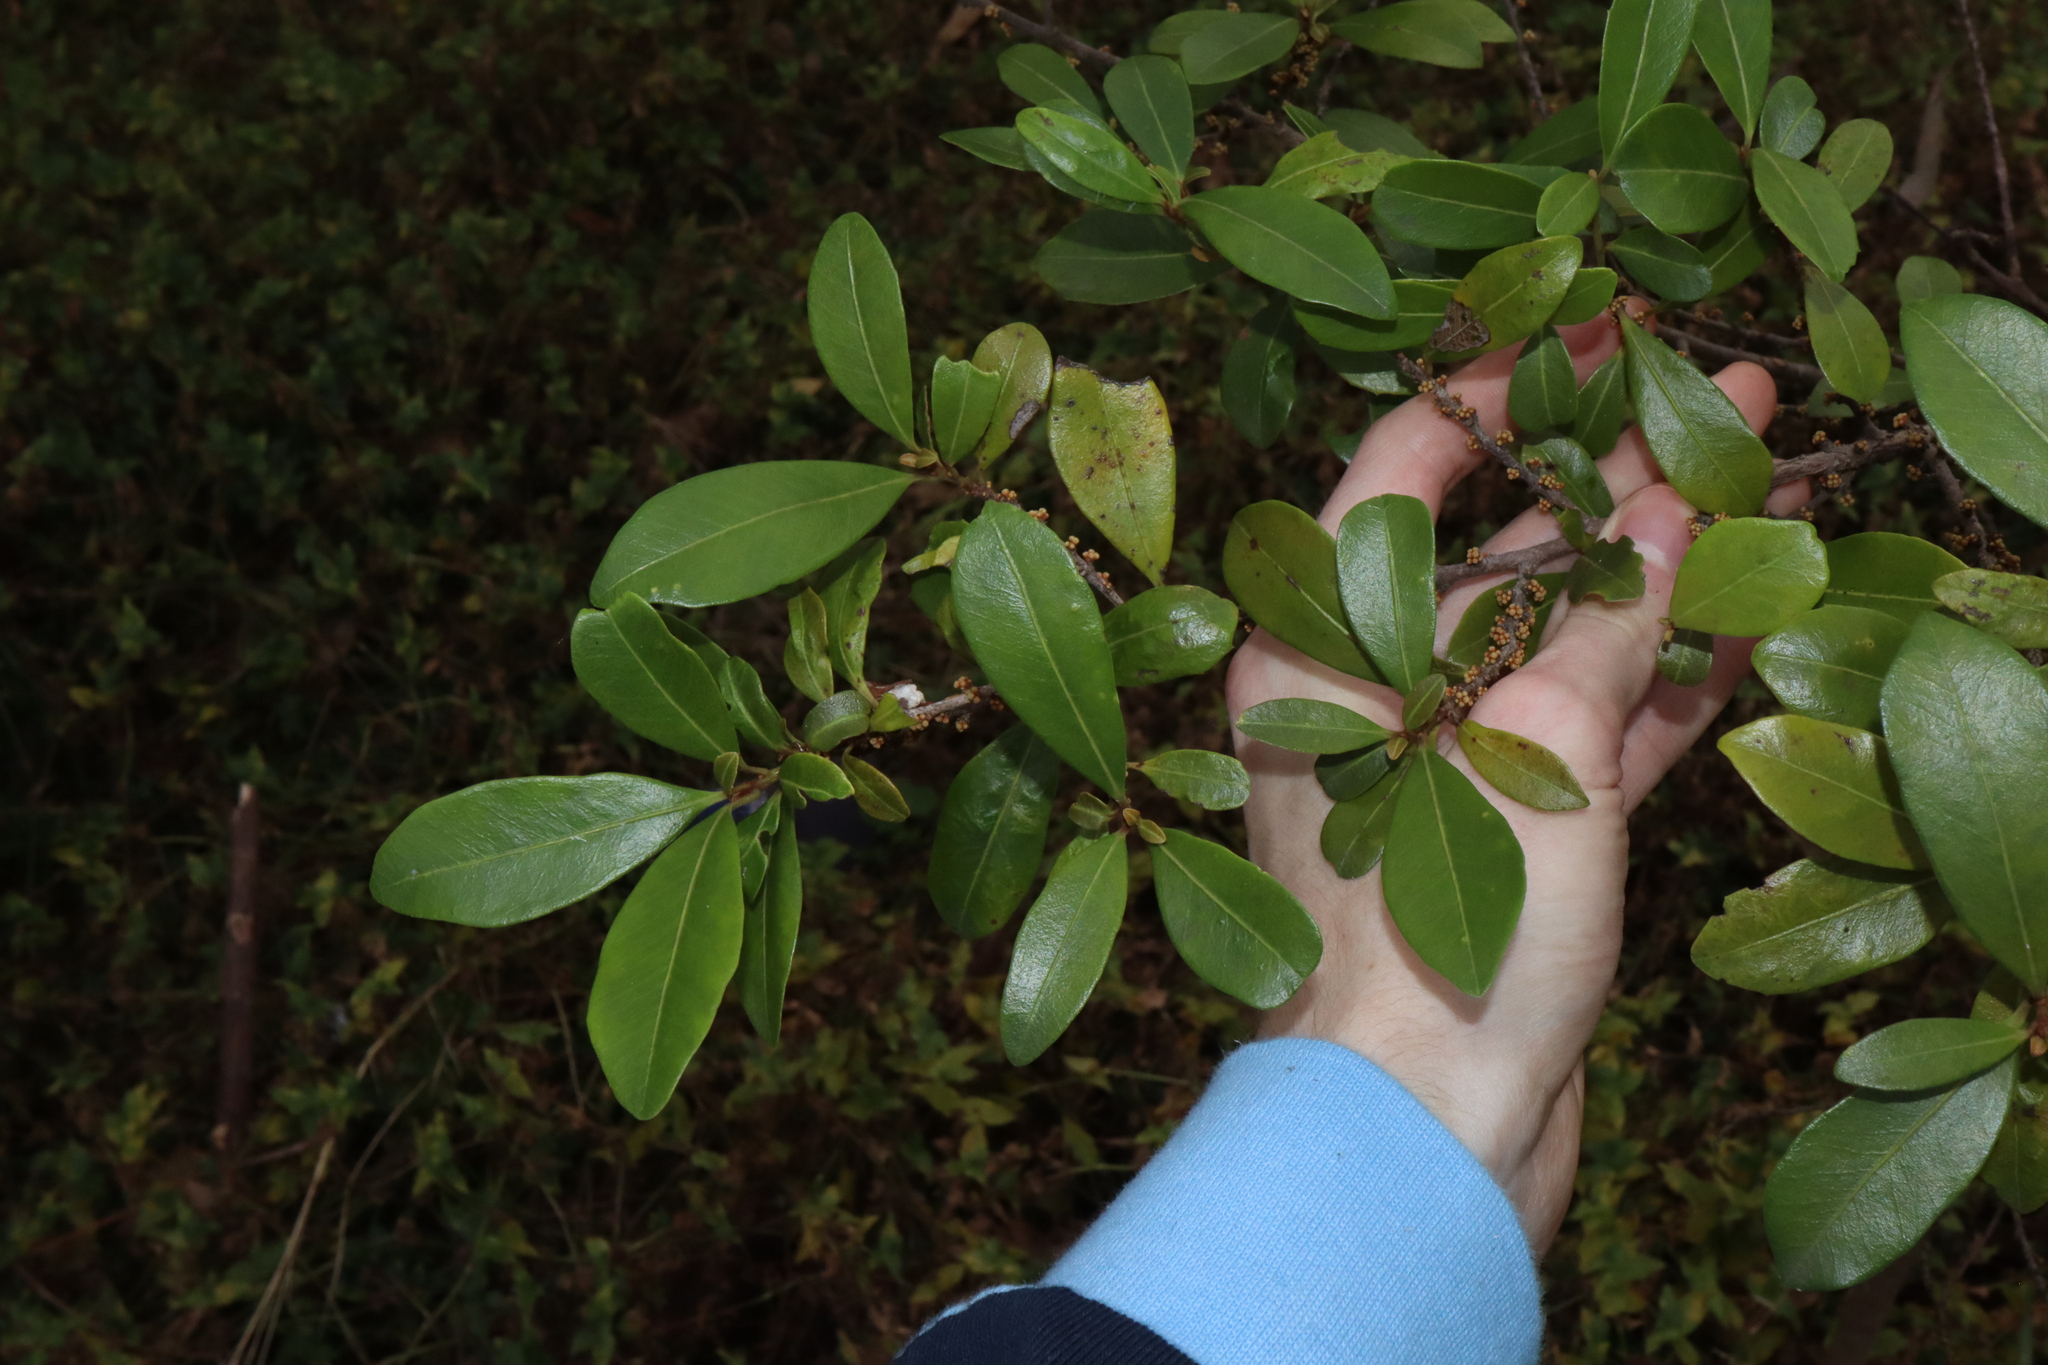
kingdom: Plantae
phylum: Tracheophyta
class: Magnoliopsida
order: Ericales
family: Primulaceae
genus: Myrsine
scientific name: Myrsine variabilis
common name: Brush muttonwood
